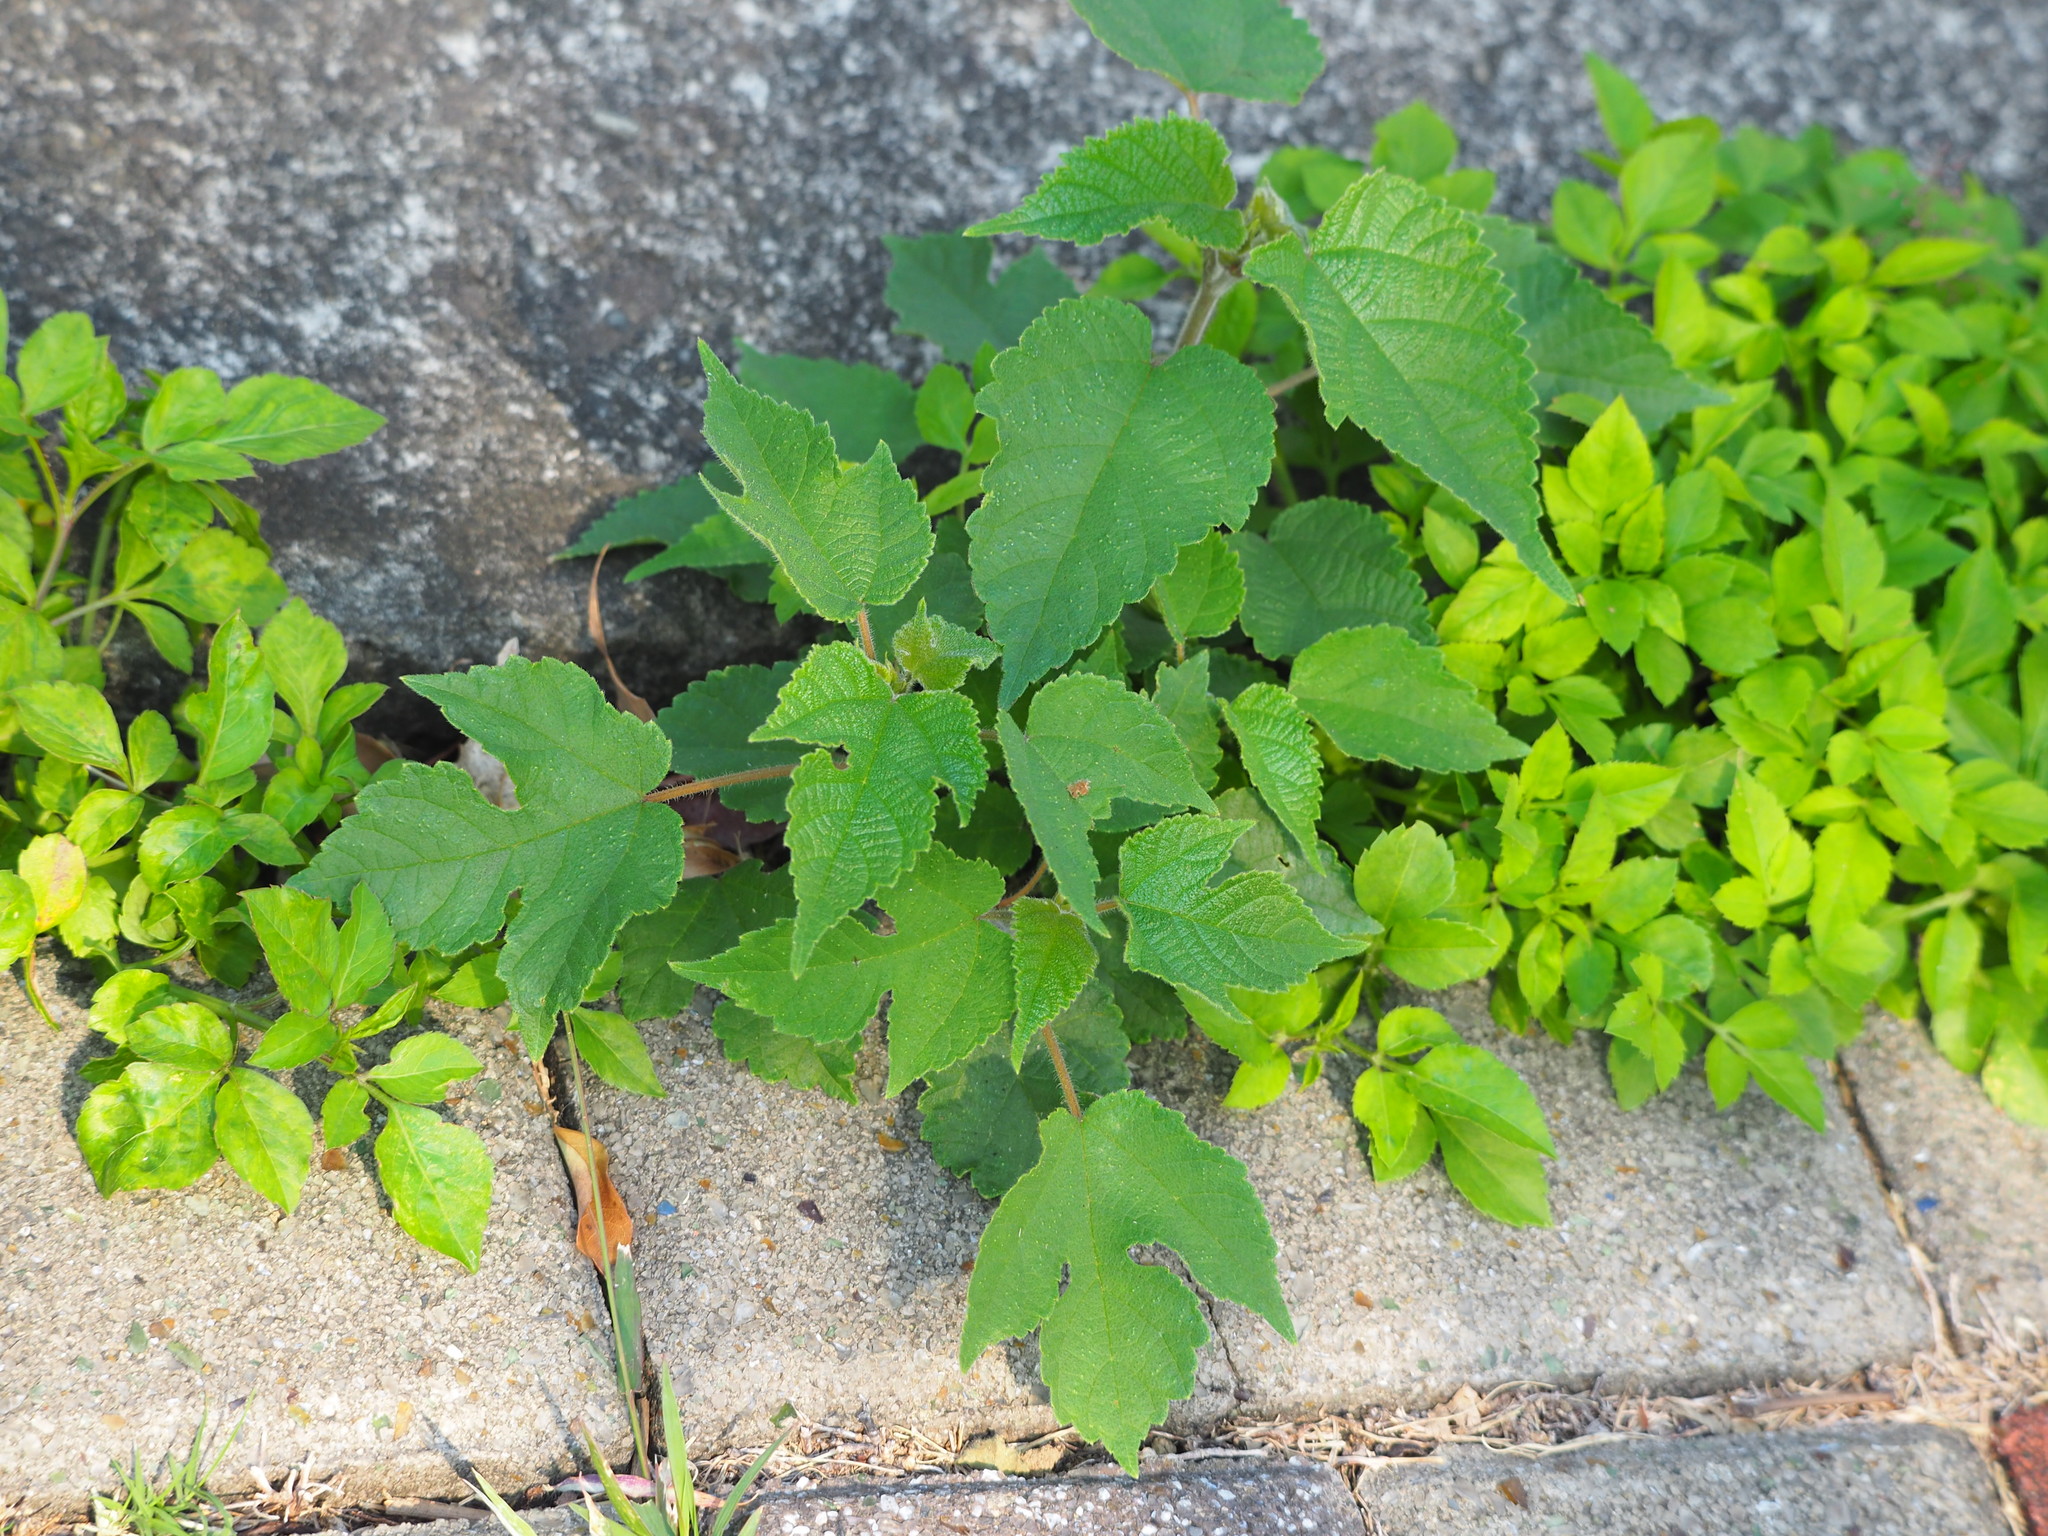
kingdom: Plantae
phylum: Tracheophyta
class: Magnoliopsida
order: Rosales
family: Moraceae
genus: Broussonetia
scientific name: Broussonetia papyrifera
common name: Paper mulberry
